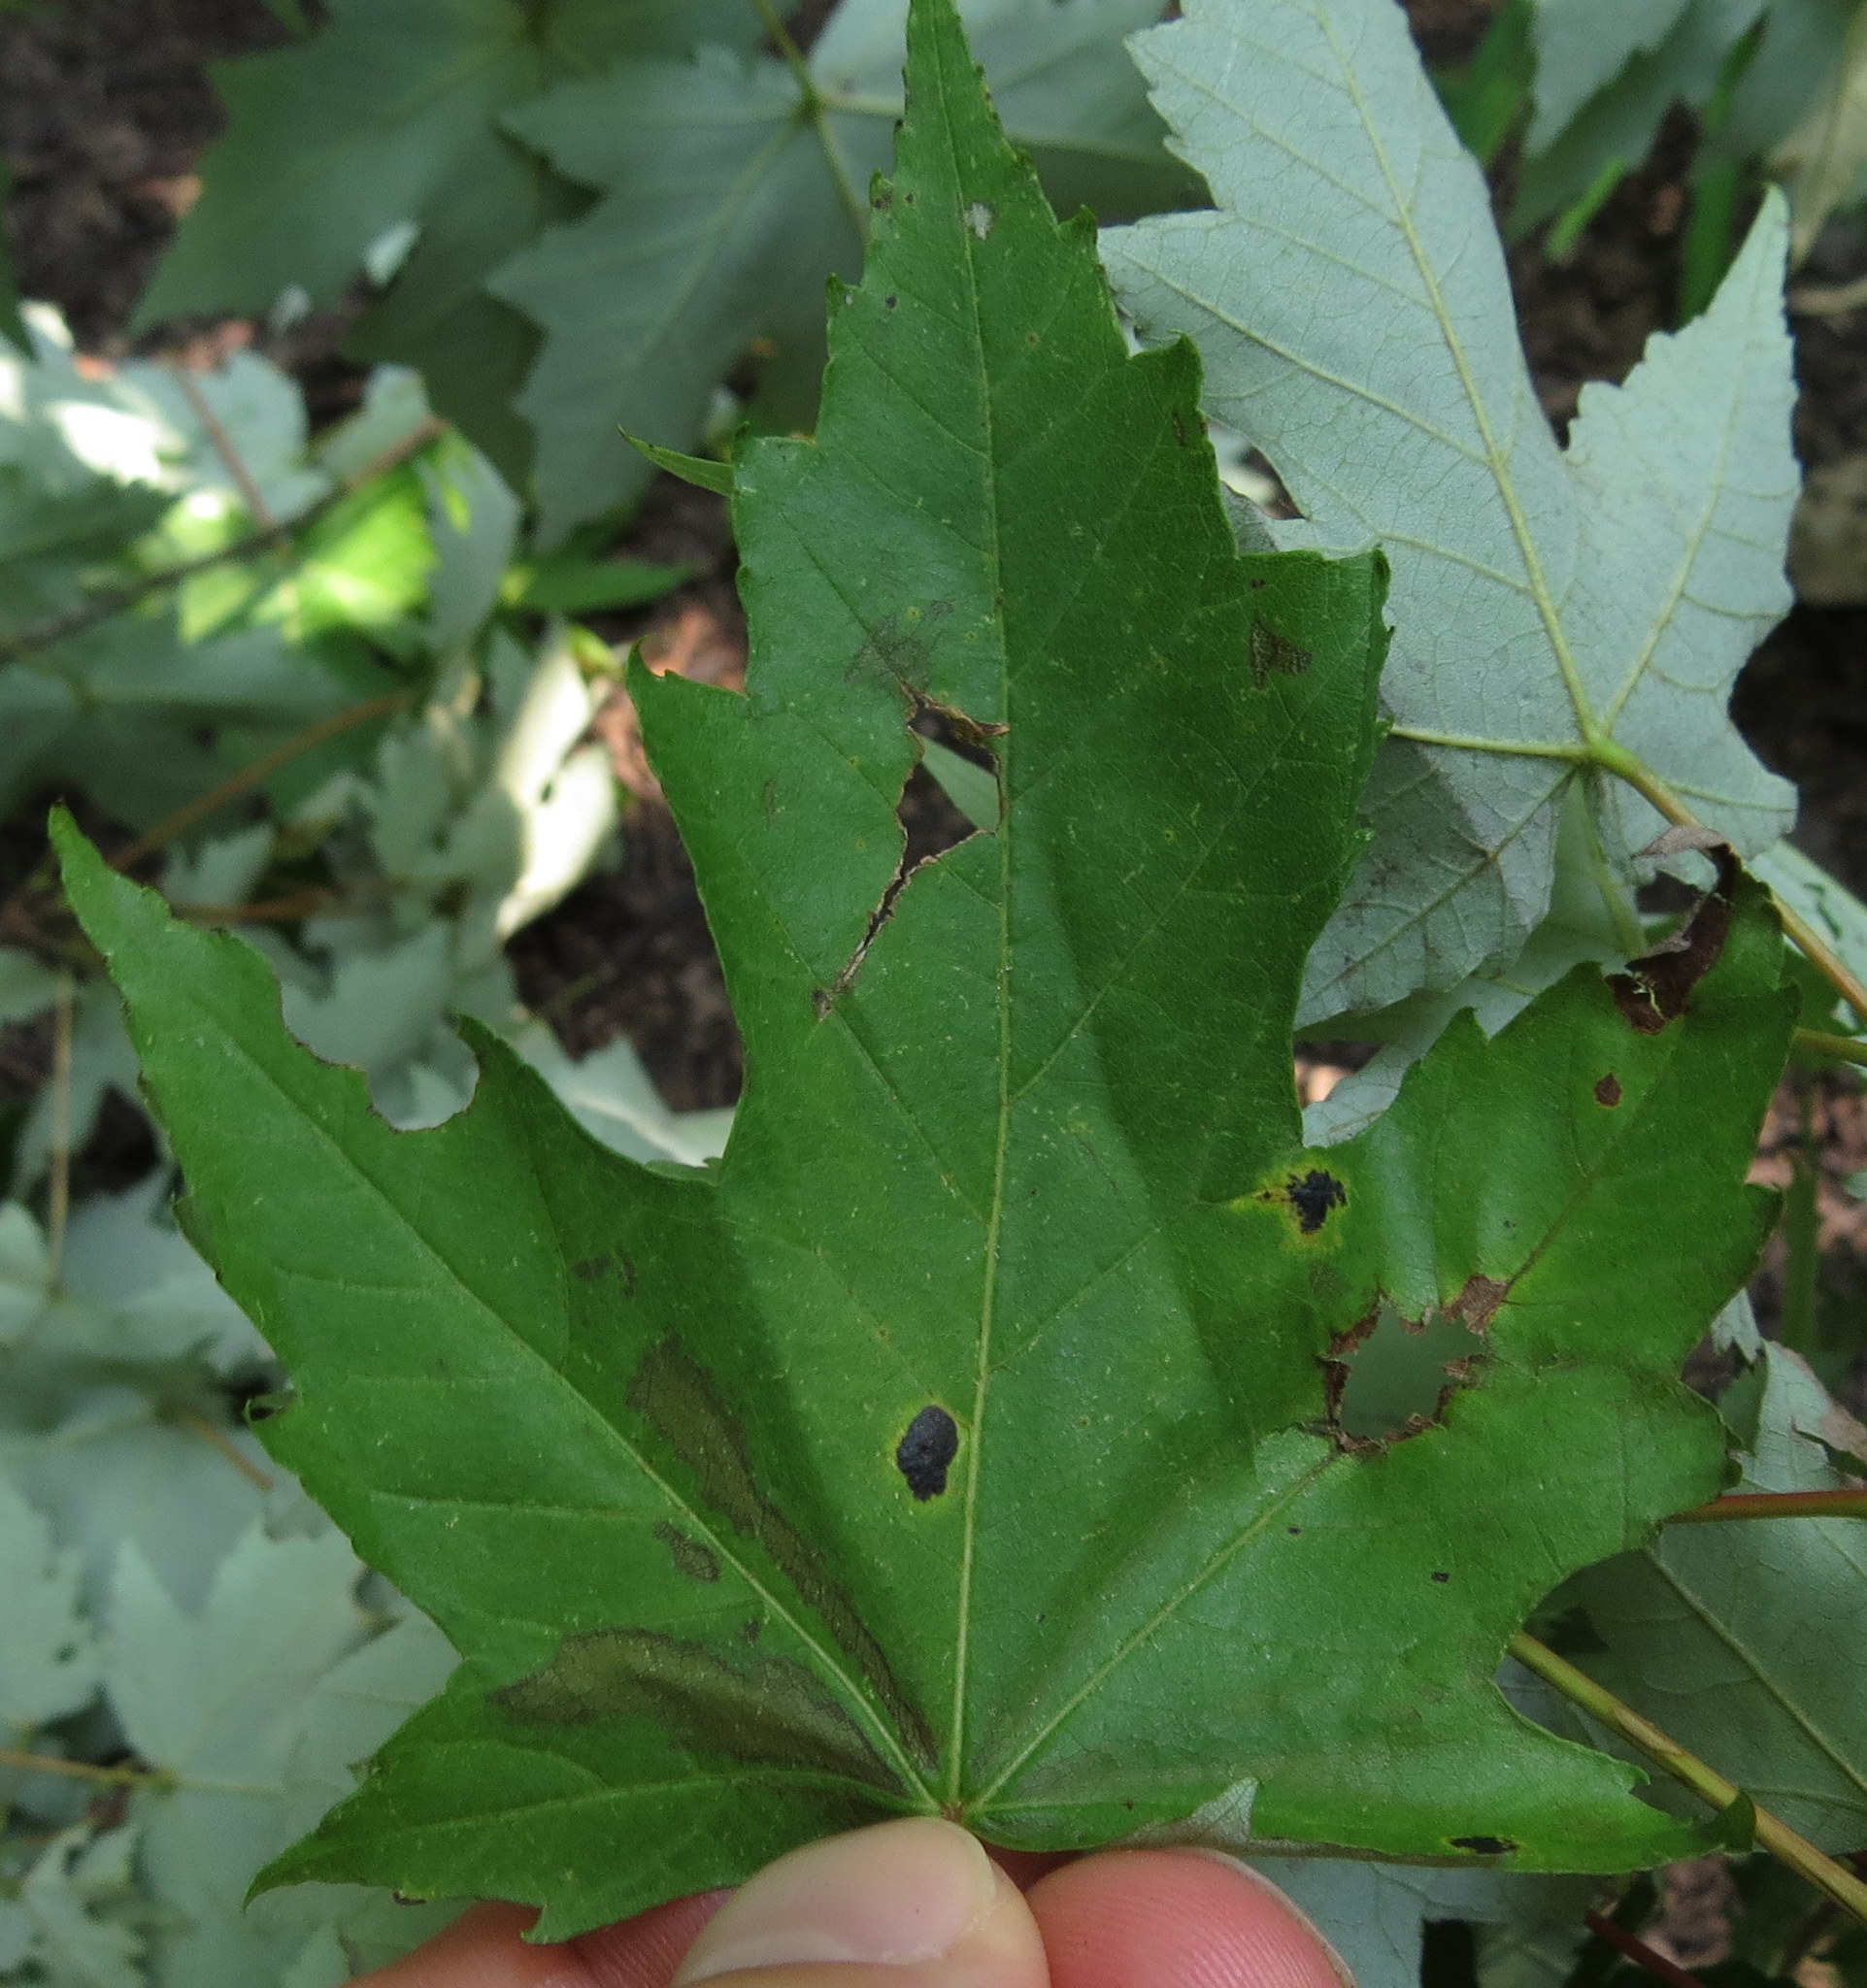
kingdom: Fungi
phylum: Ascomycota
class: Leotiomycetes
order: Rhytismatales
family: Rhytismataceae
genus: Rhytisma
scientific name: Rhytisma americanum
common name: American tar spot
